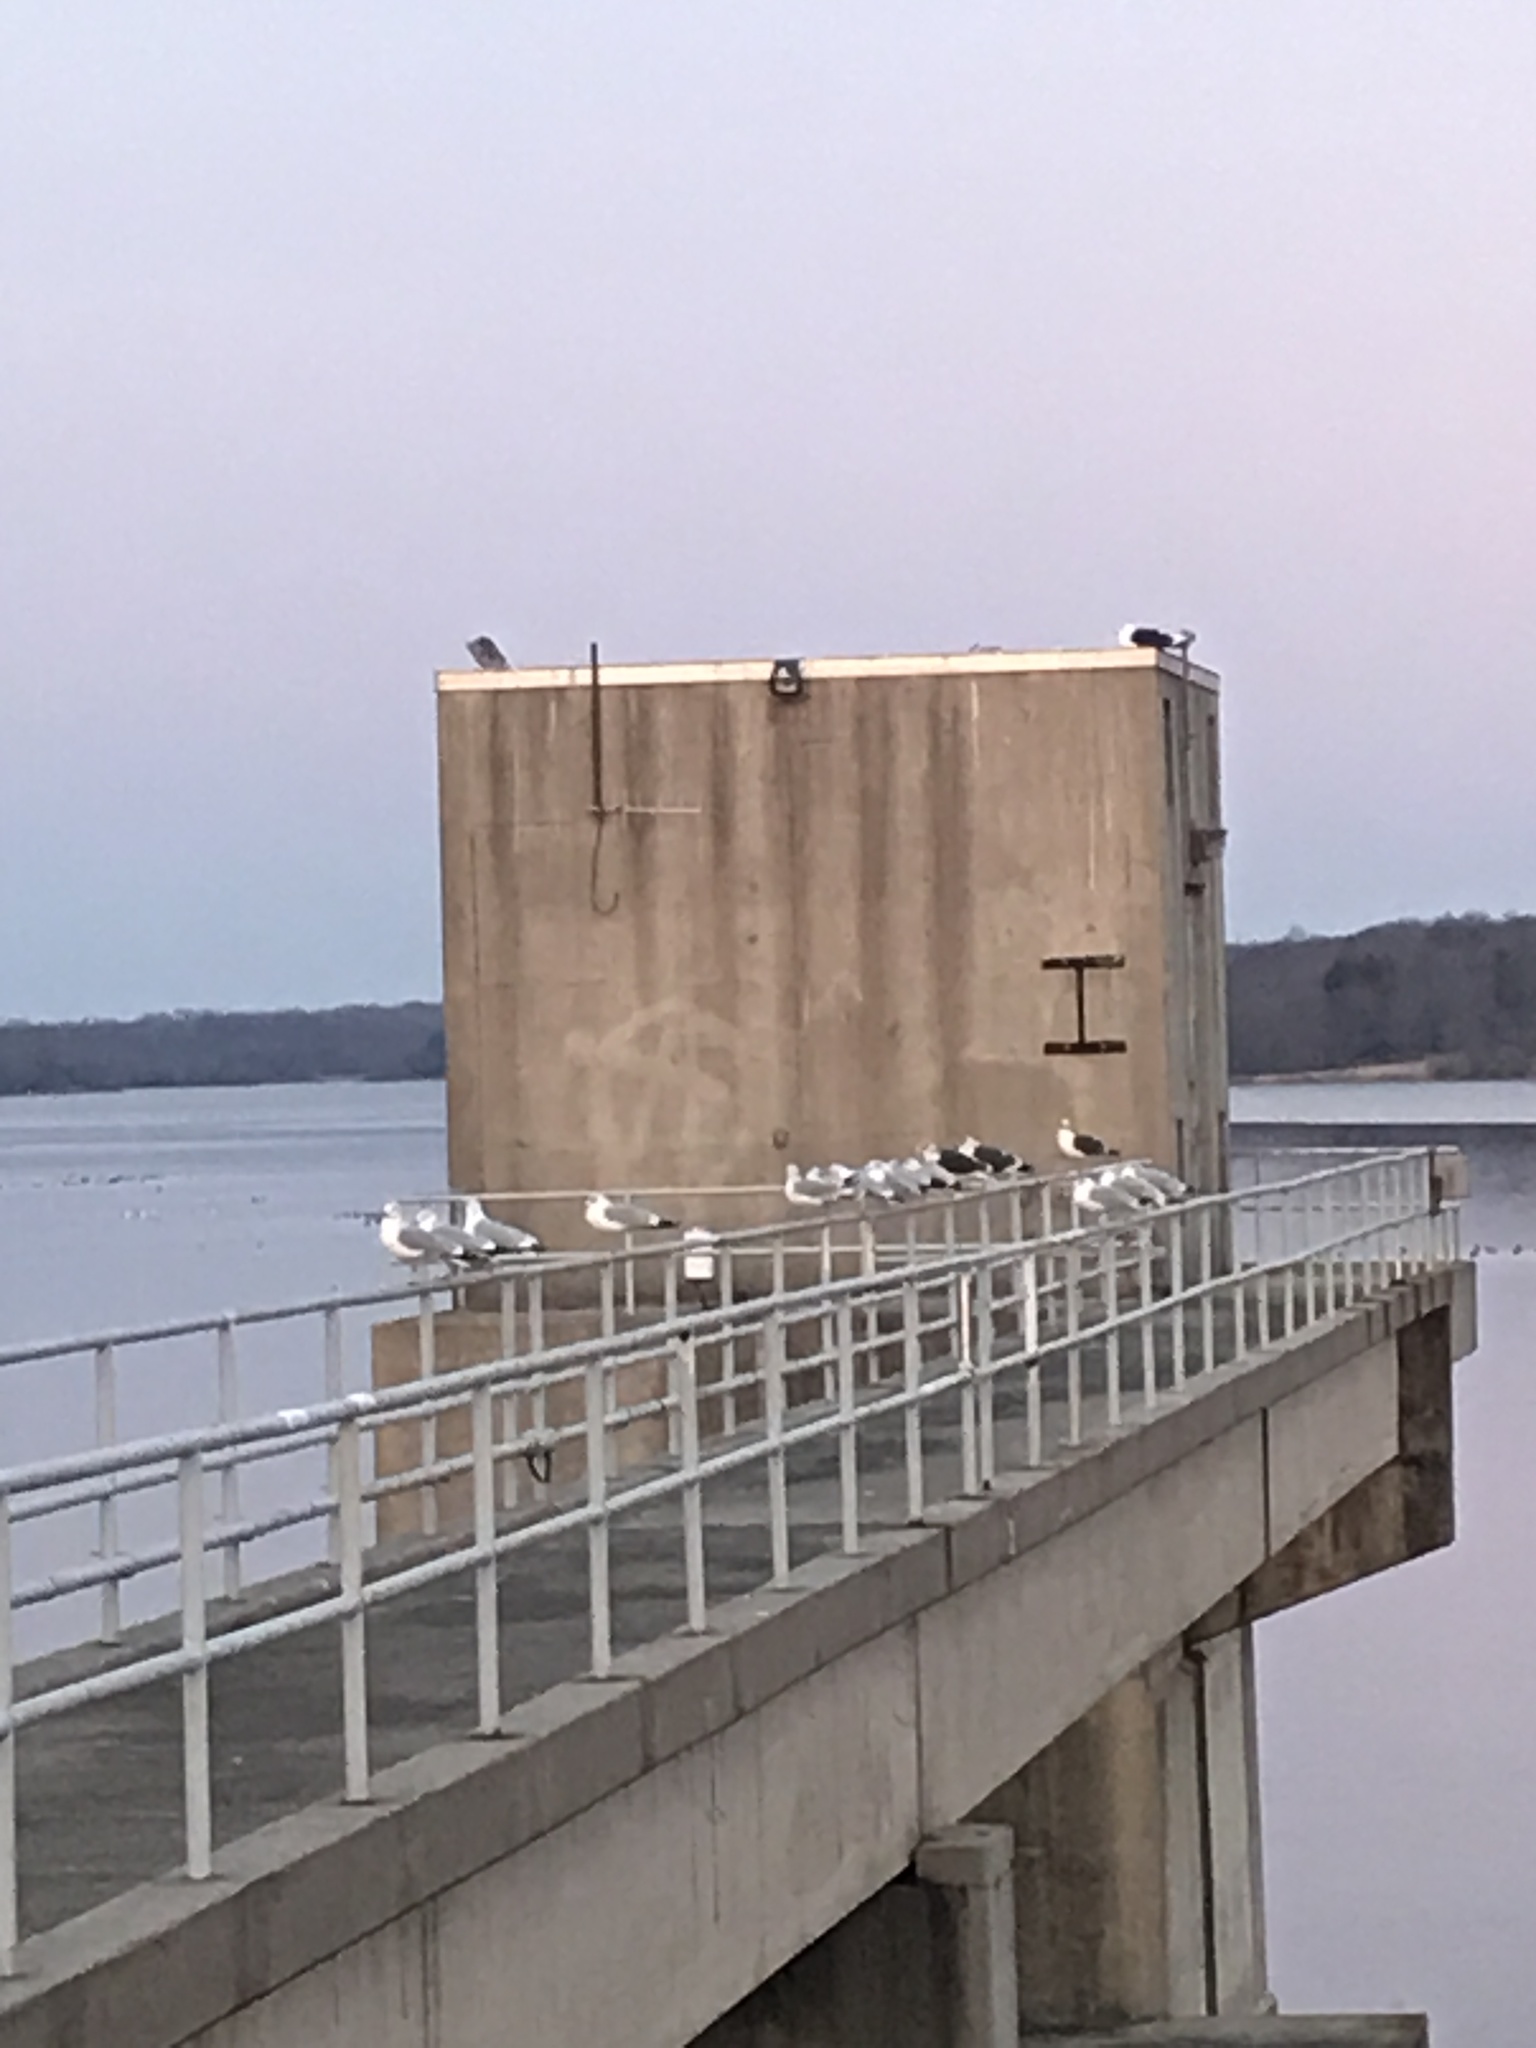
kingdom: Animalia
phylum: Chordata
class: Aves
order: Charadriiformes
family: Laridae
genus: Larus
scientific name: Larus
